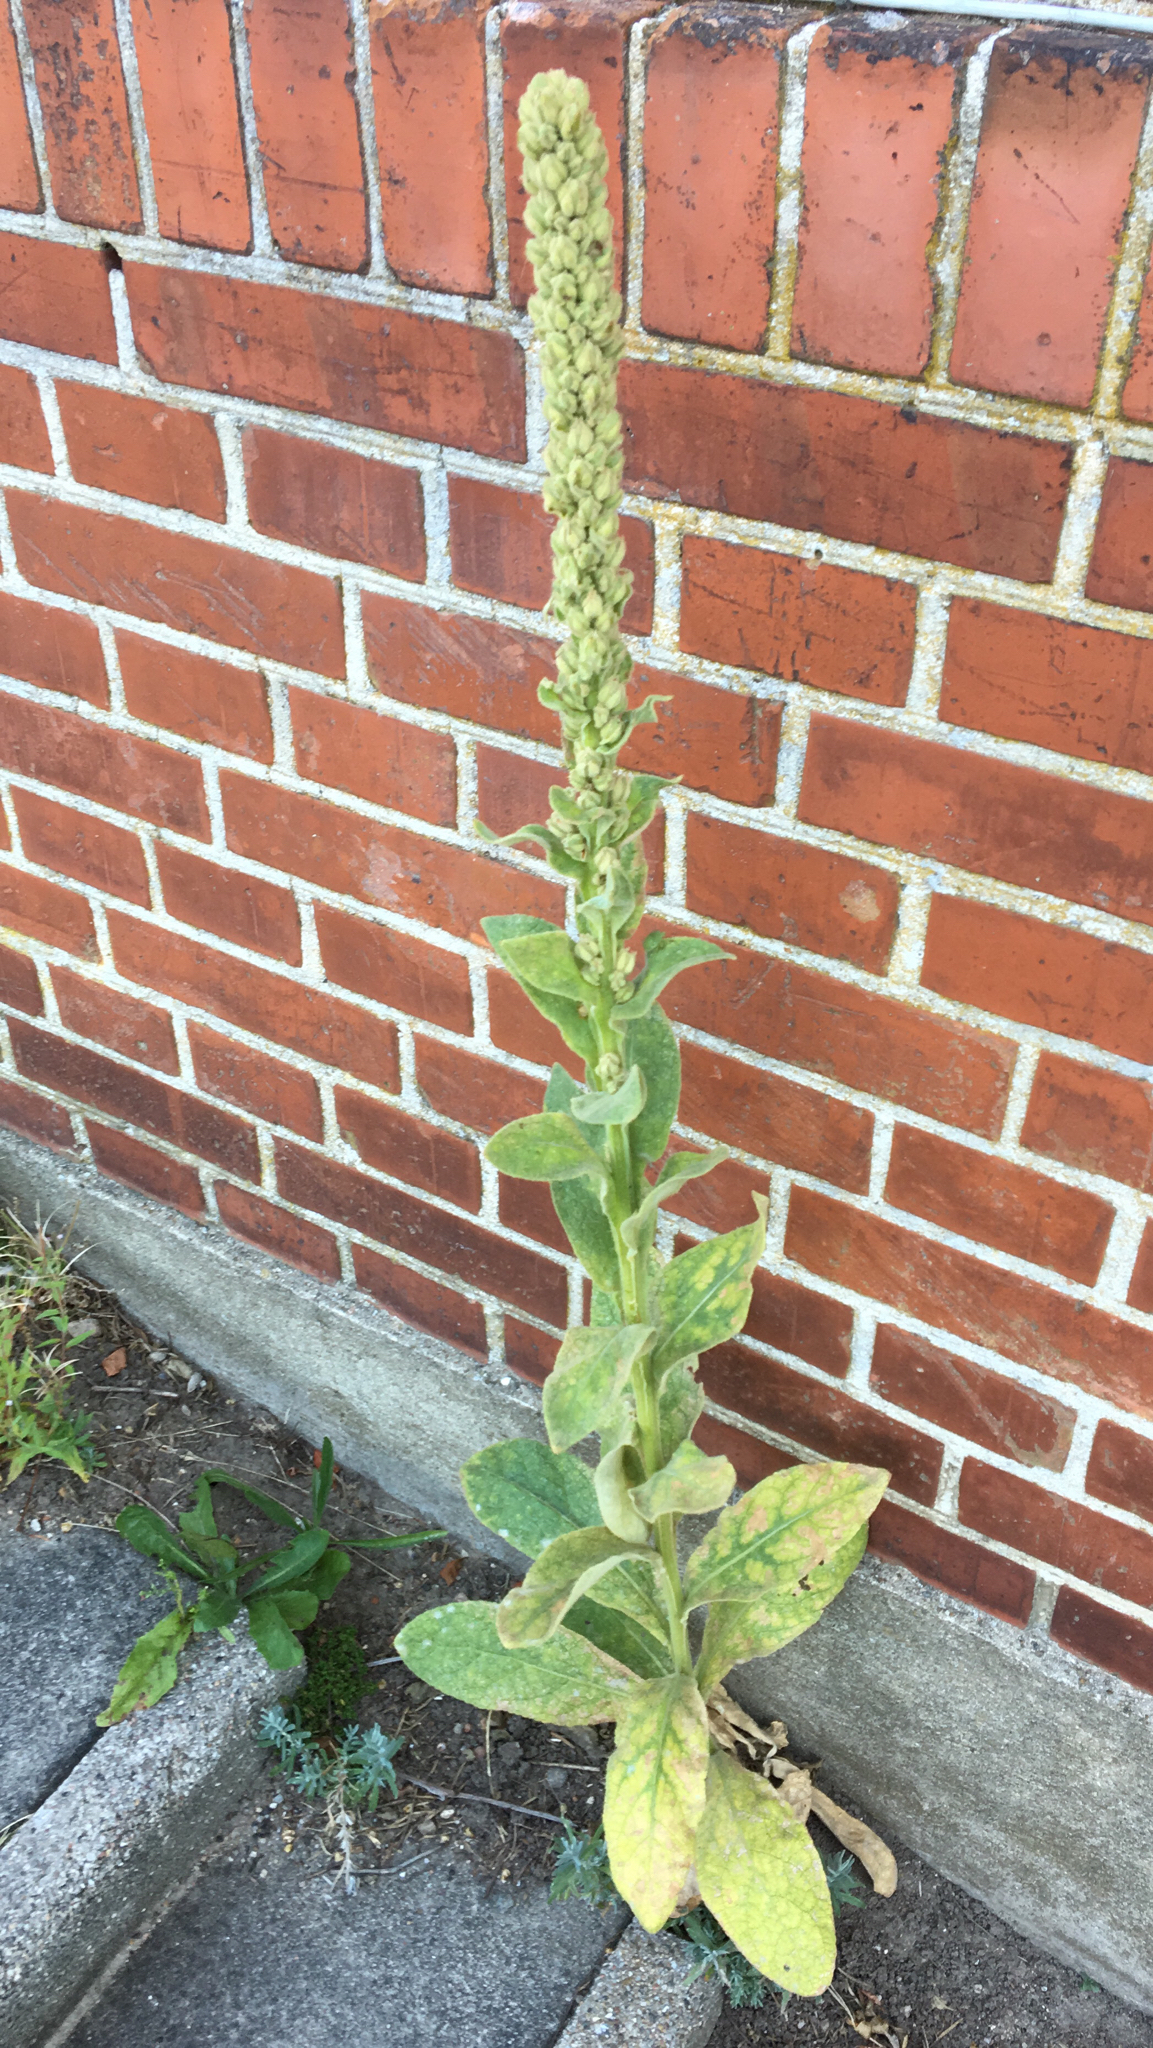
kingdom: Plantae
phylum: Tracheophyta
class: Magnoliopsida
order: Lamiales
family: Scrophulariaceae
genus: Verbascum
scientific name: Verbascum thapsus
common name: Common mullein
